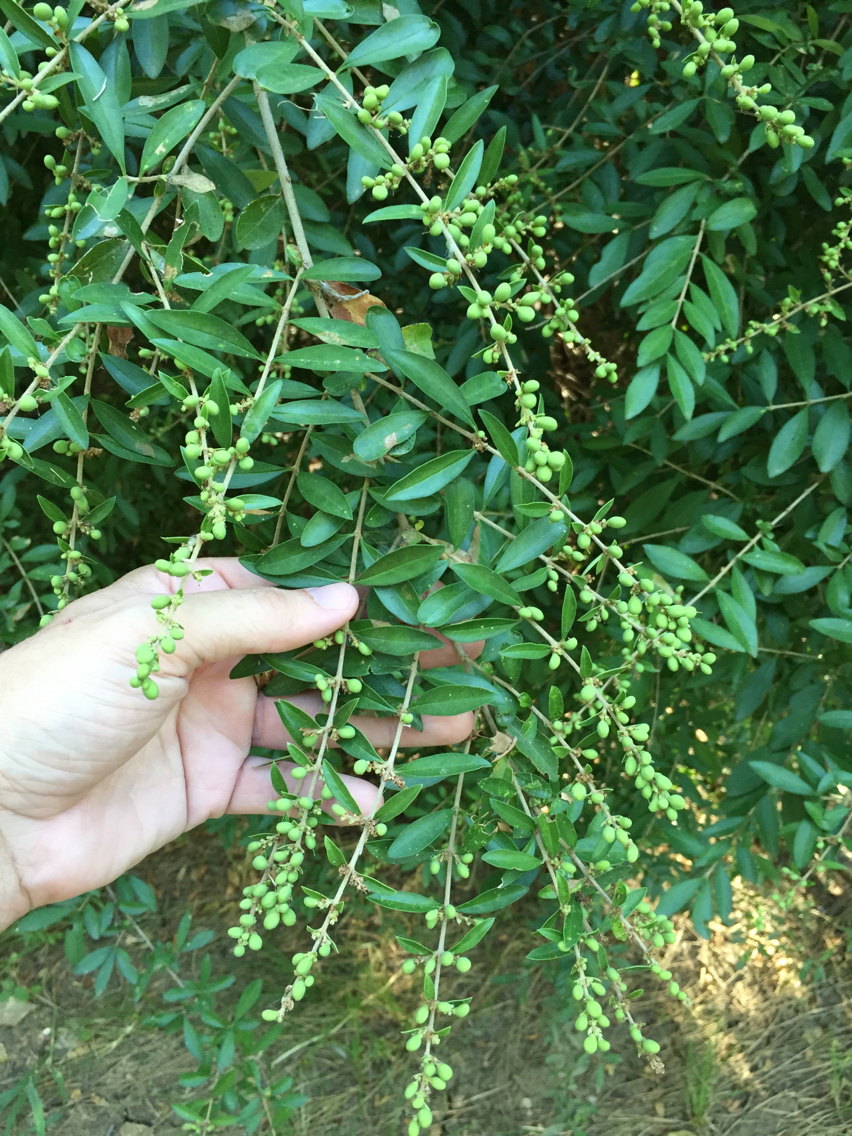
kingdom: Plantae
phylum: Tracheophyta
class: Magnoliopsida
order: Lamiales
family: Oleaceae
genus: Ligustrum
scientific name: Ligustrum quihoui
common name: Waxyleaf privet
